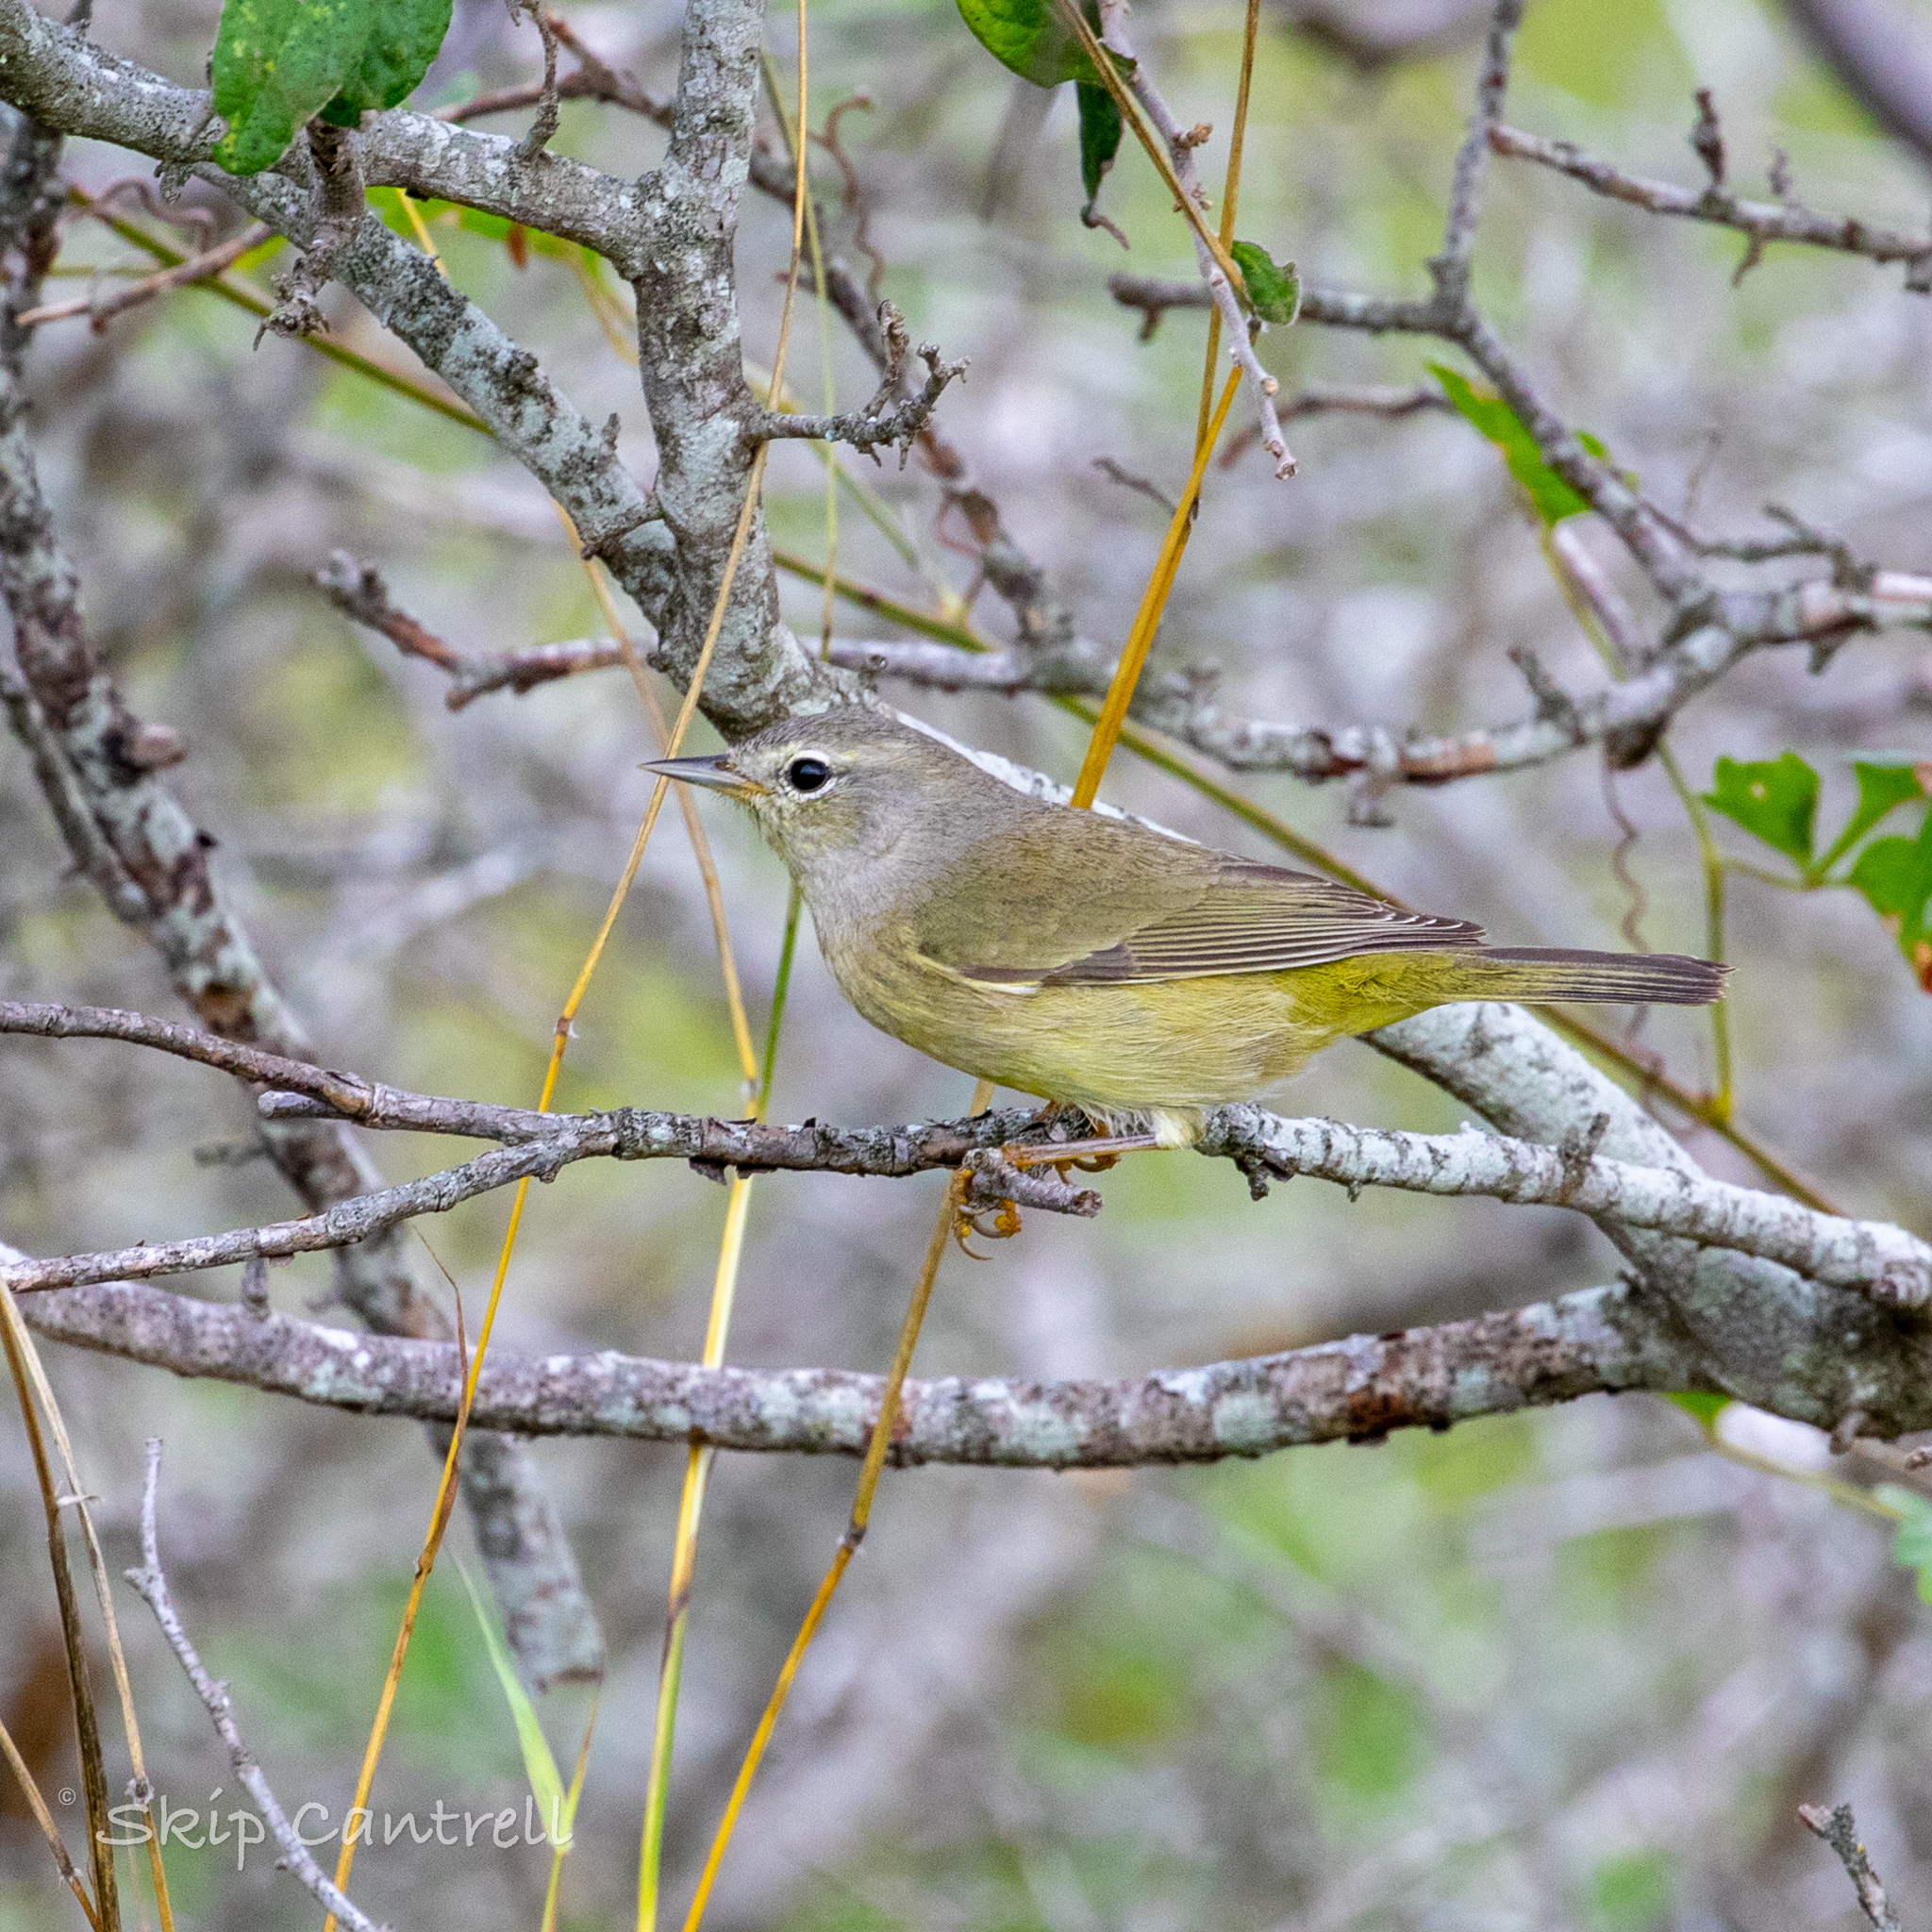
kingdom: Animalia
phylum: Chordata
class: Aves
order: Passeriformes
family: Parulidae
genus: Leiothlypis
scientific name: Leiothlypis celata
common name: Orange-crowned warbler
